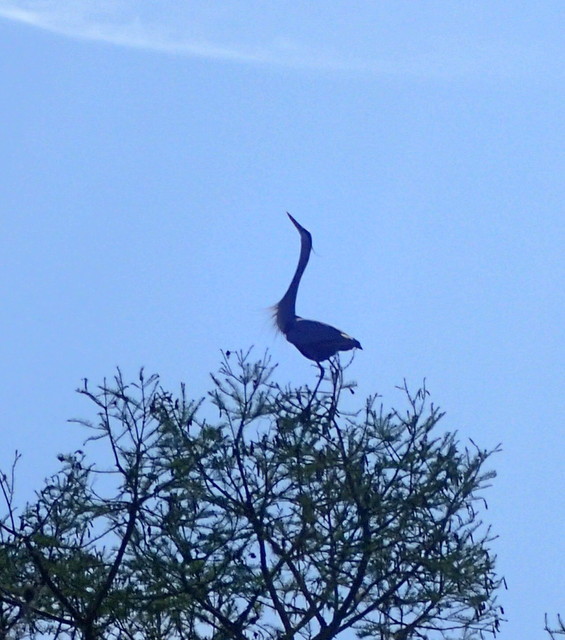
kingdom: Animalia
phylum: Chordata
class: Aves
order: Pelecaniformes
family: Ardeidae
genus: Ardea
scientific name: Ardea herodias
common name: Great blue heron
